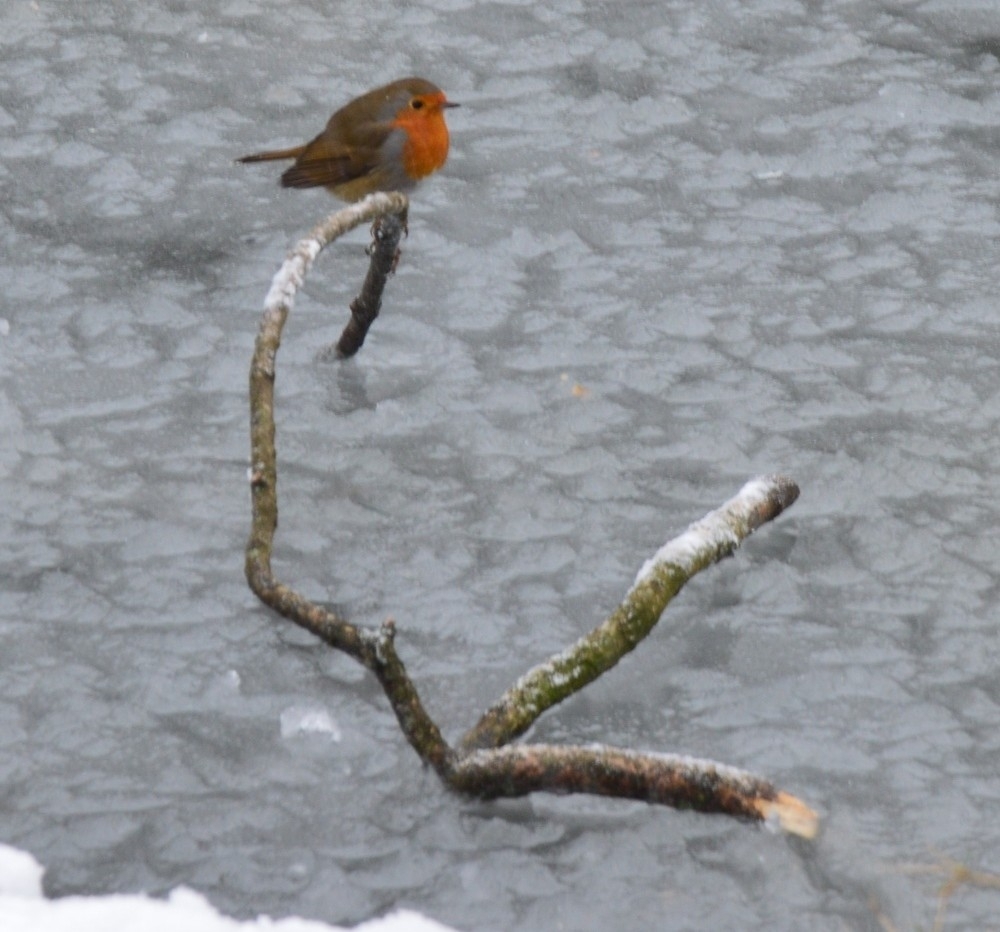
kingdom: Animalia
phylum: Chordata
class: Aves
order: Passeriformes
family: Muscicapidae
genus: Erithacus
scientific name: Erithacus rubecula
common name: European robin
